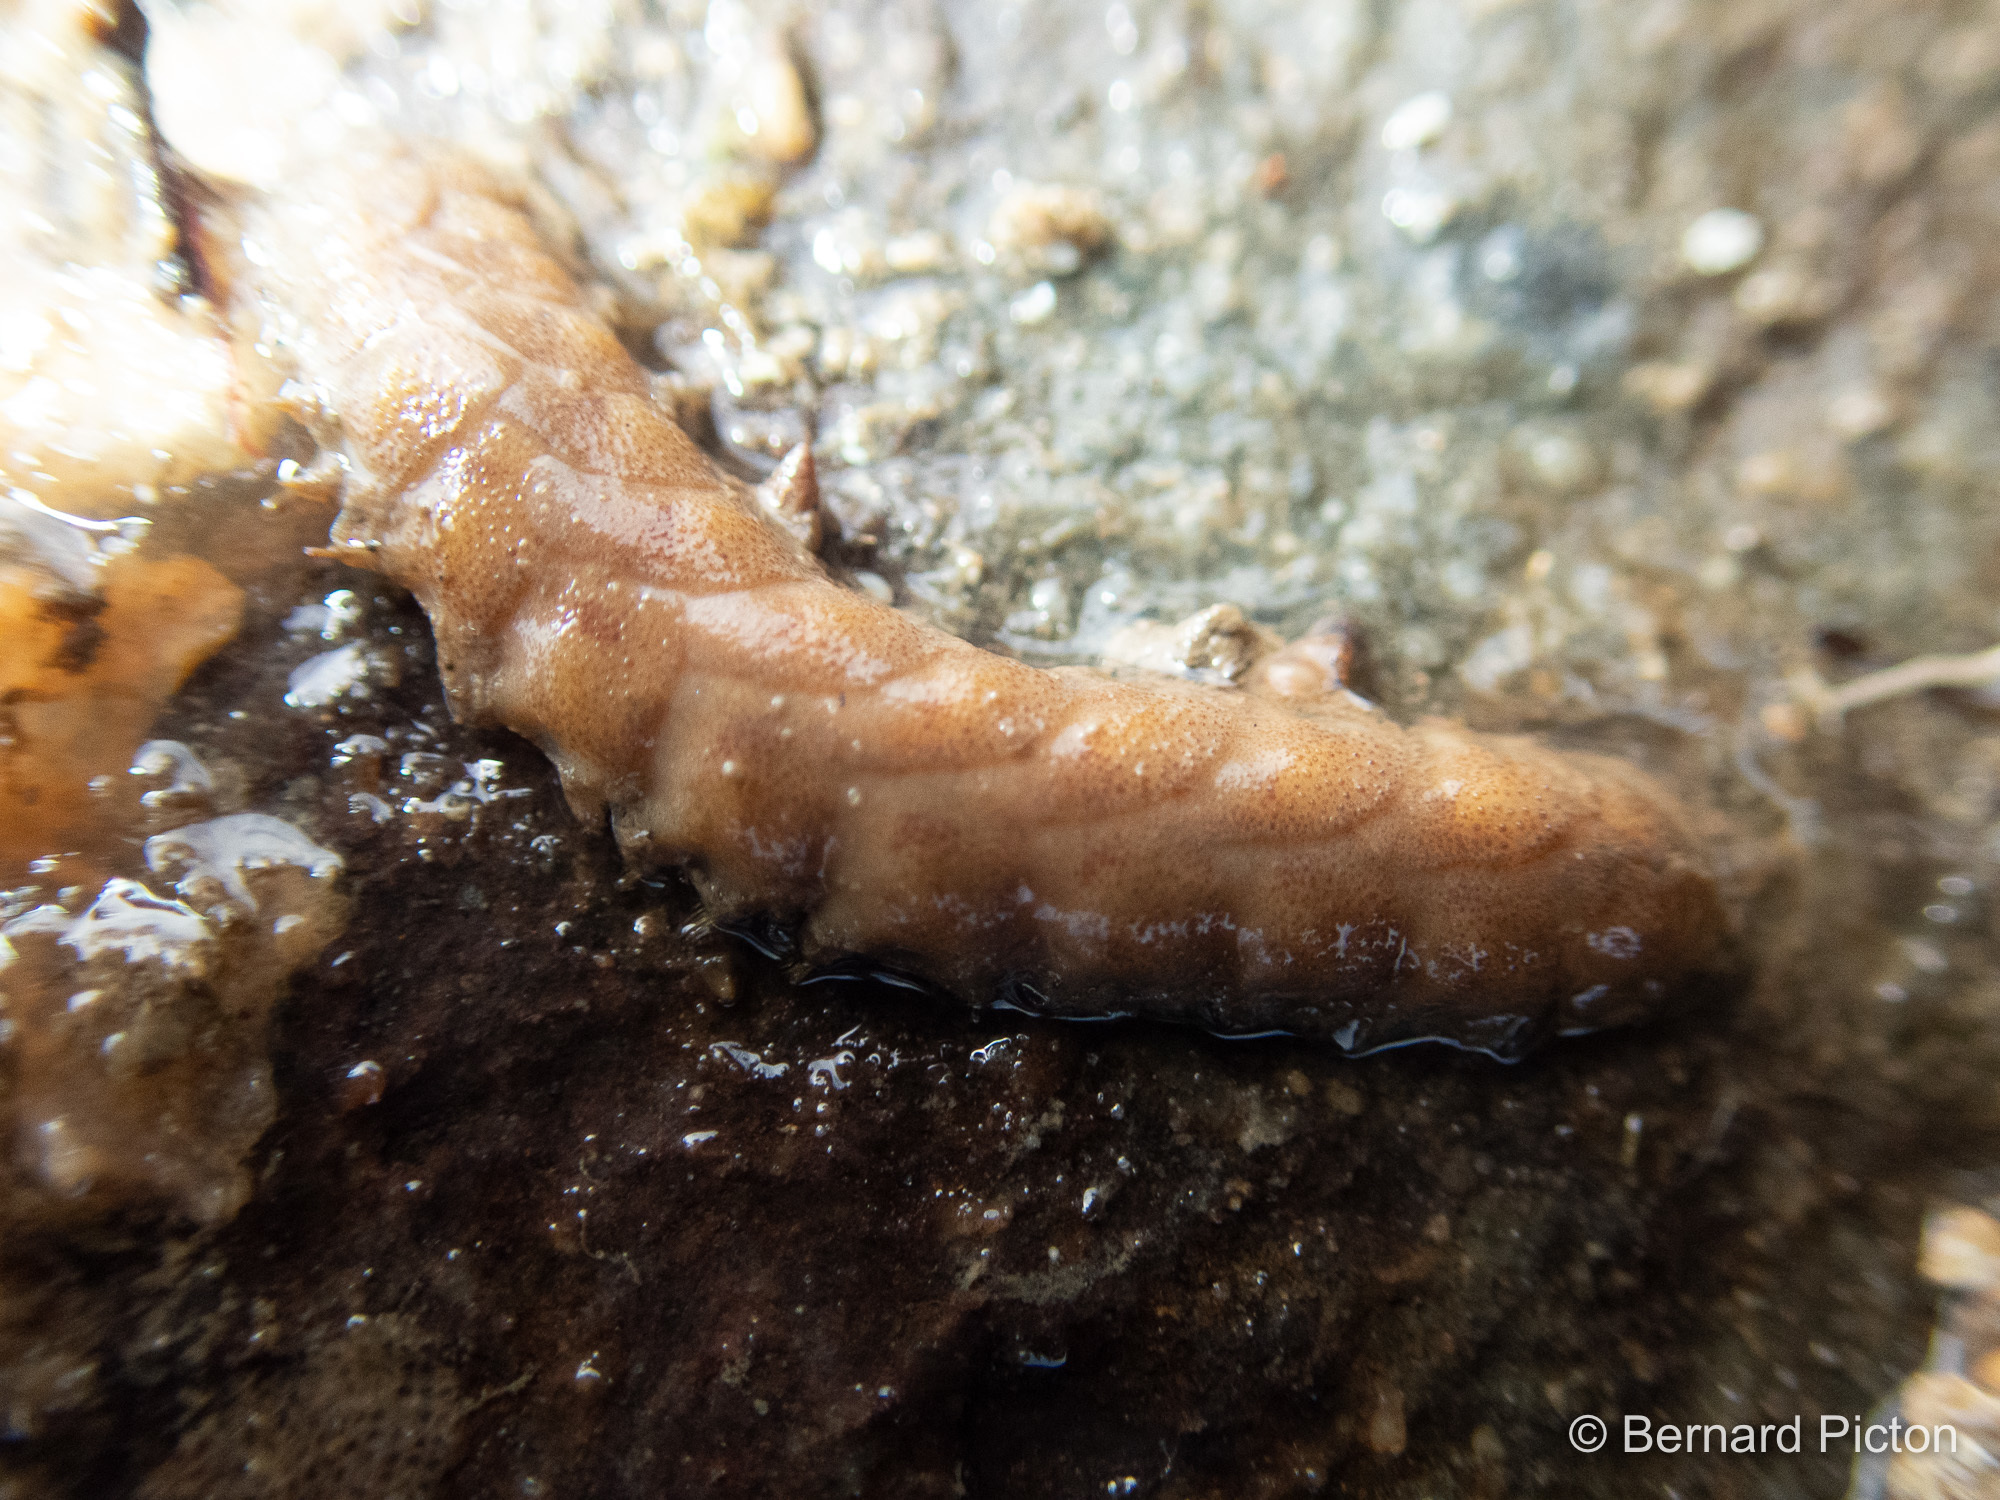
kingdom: Animalia
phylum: Annelida
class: Polychaeta
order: Phyllodocida
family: Polynoidae
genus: Lepidonotus
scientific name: Lepidonotus squamatus
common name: Twelve-scaled worm
